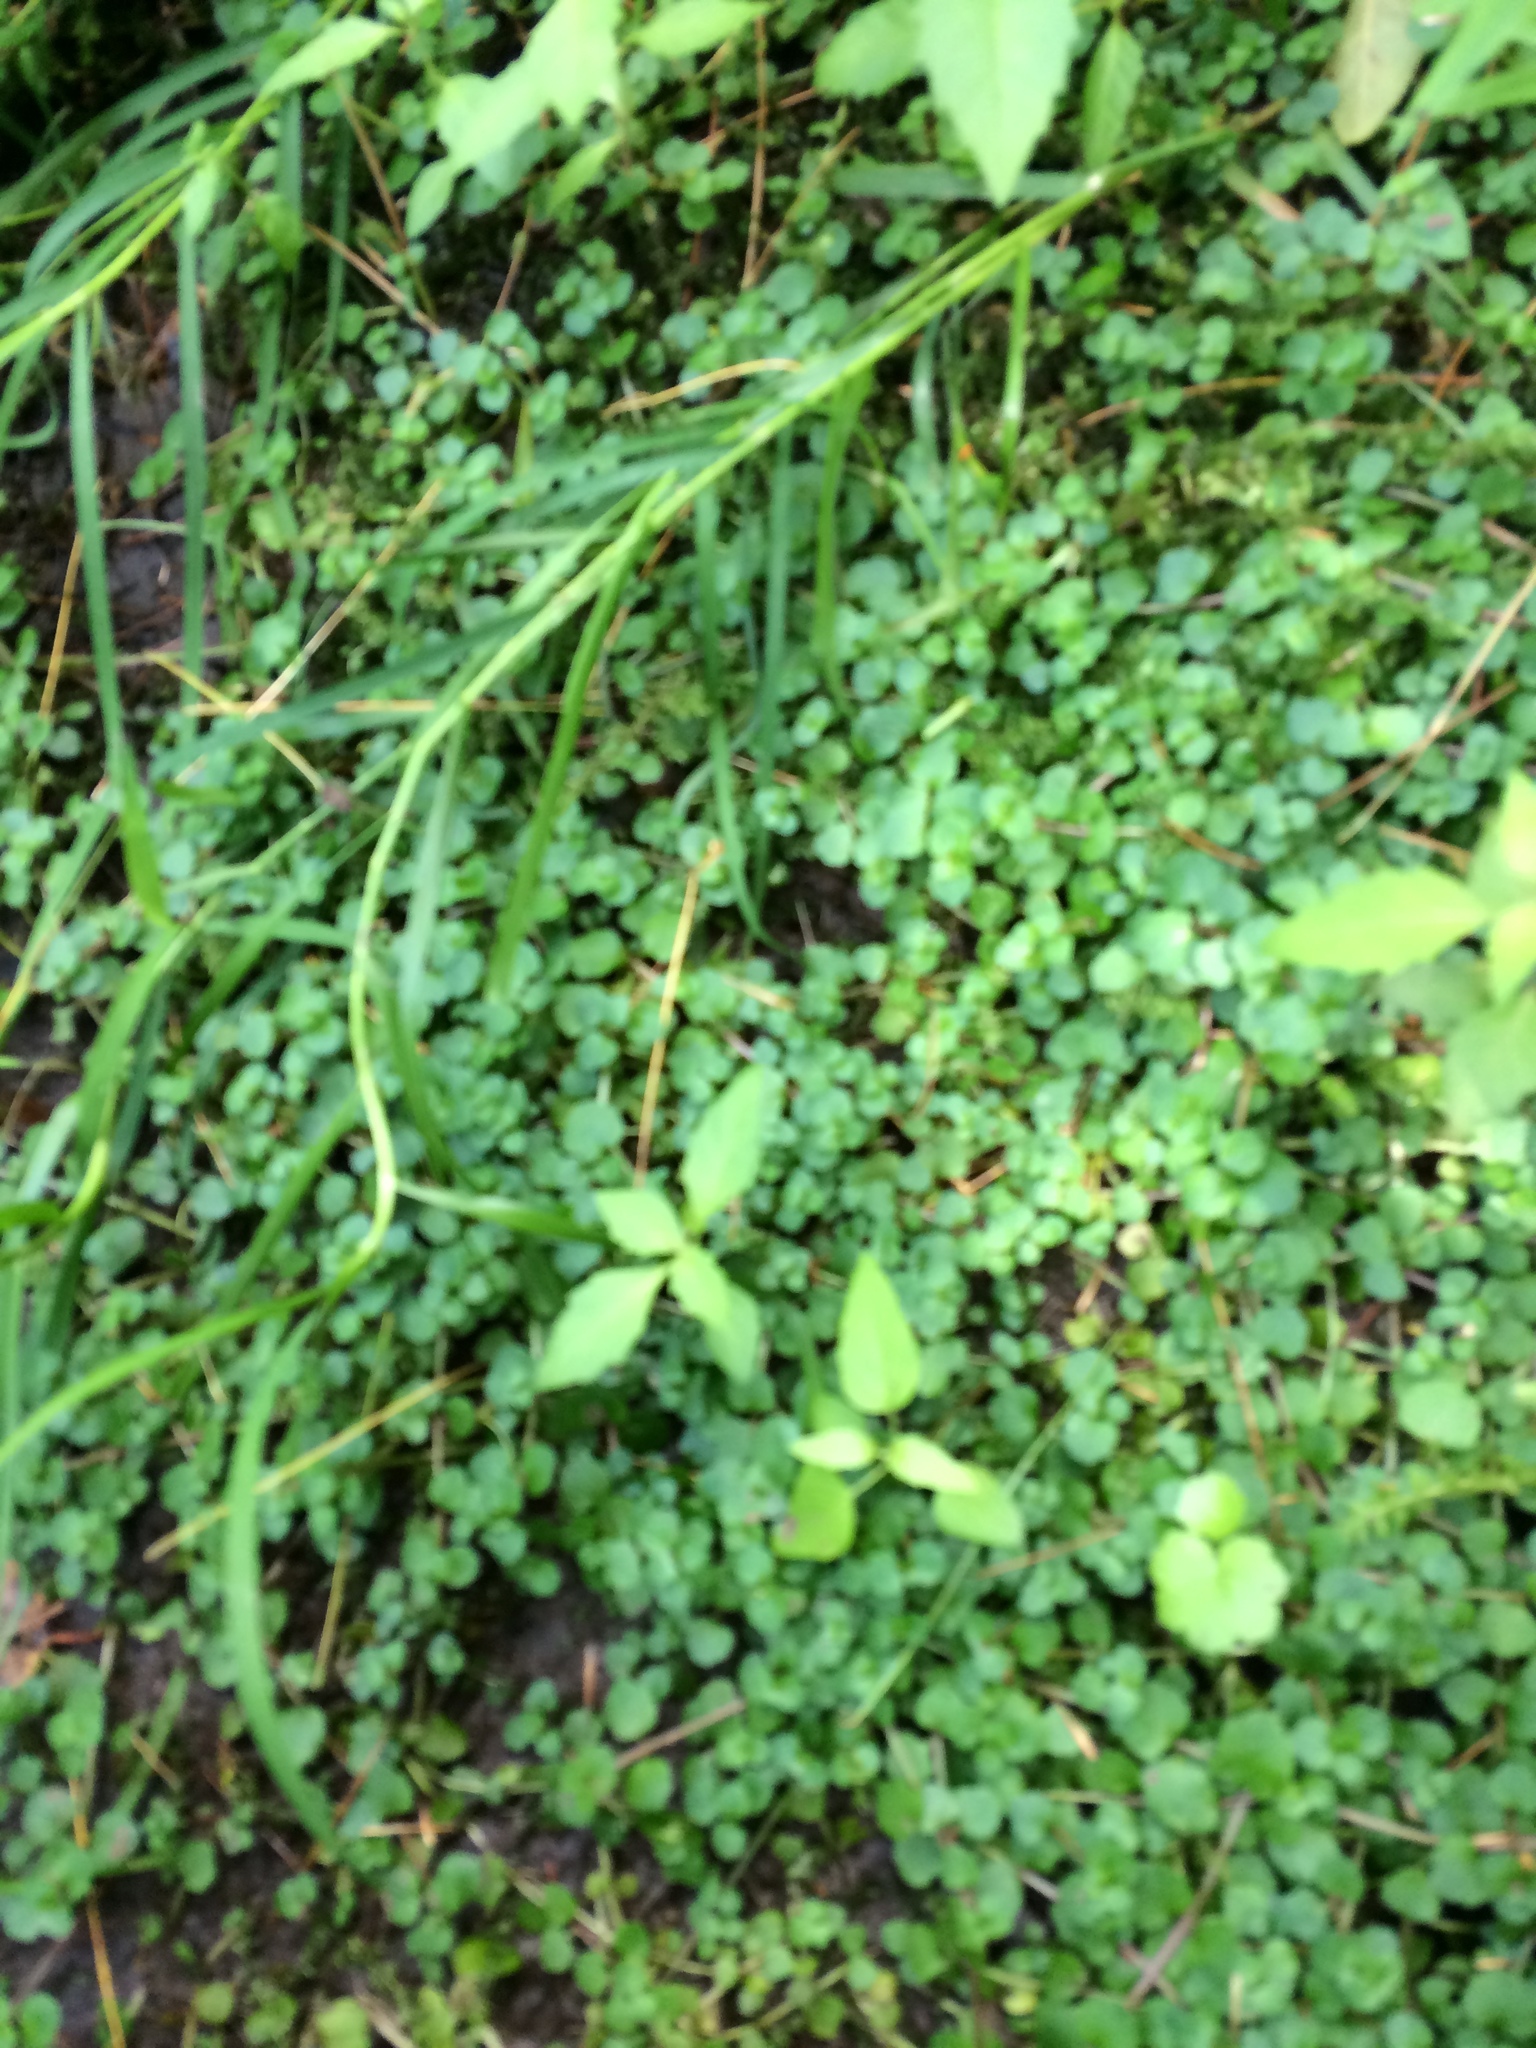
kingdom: Plantae
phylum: Tracheophyta
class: Magnoliopsida
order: Saxifragales
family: Saxifragaceae
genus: Chrysosplenium
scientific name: Chrysosplenium americanum
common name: American golden-saxifrage
